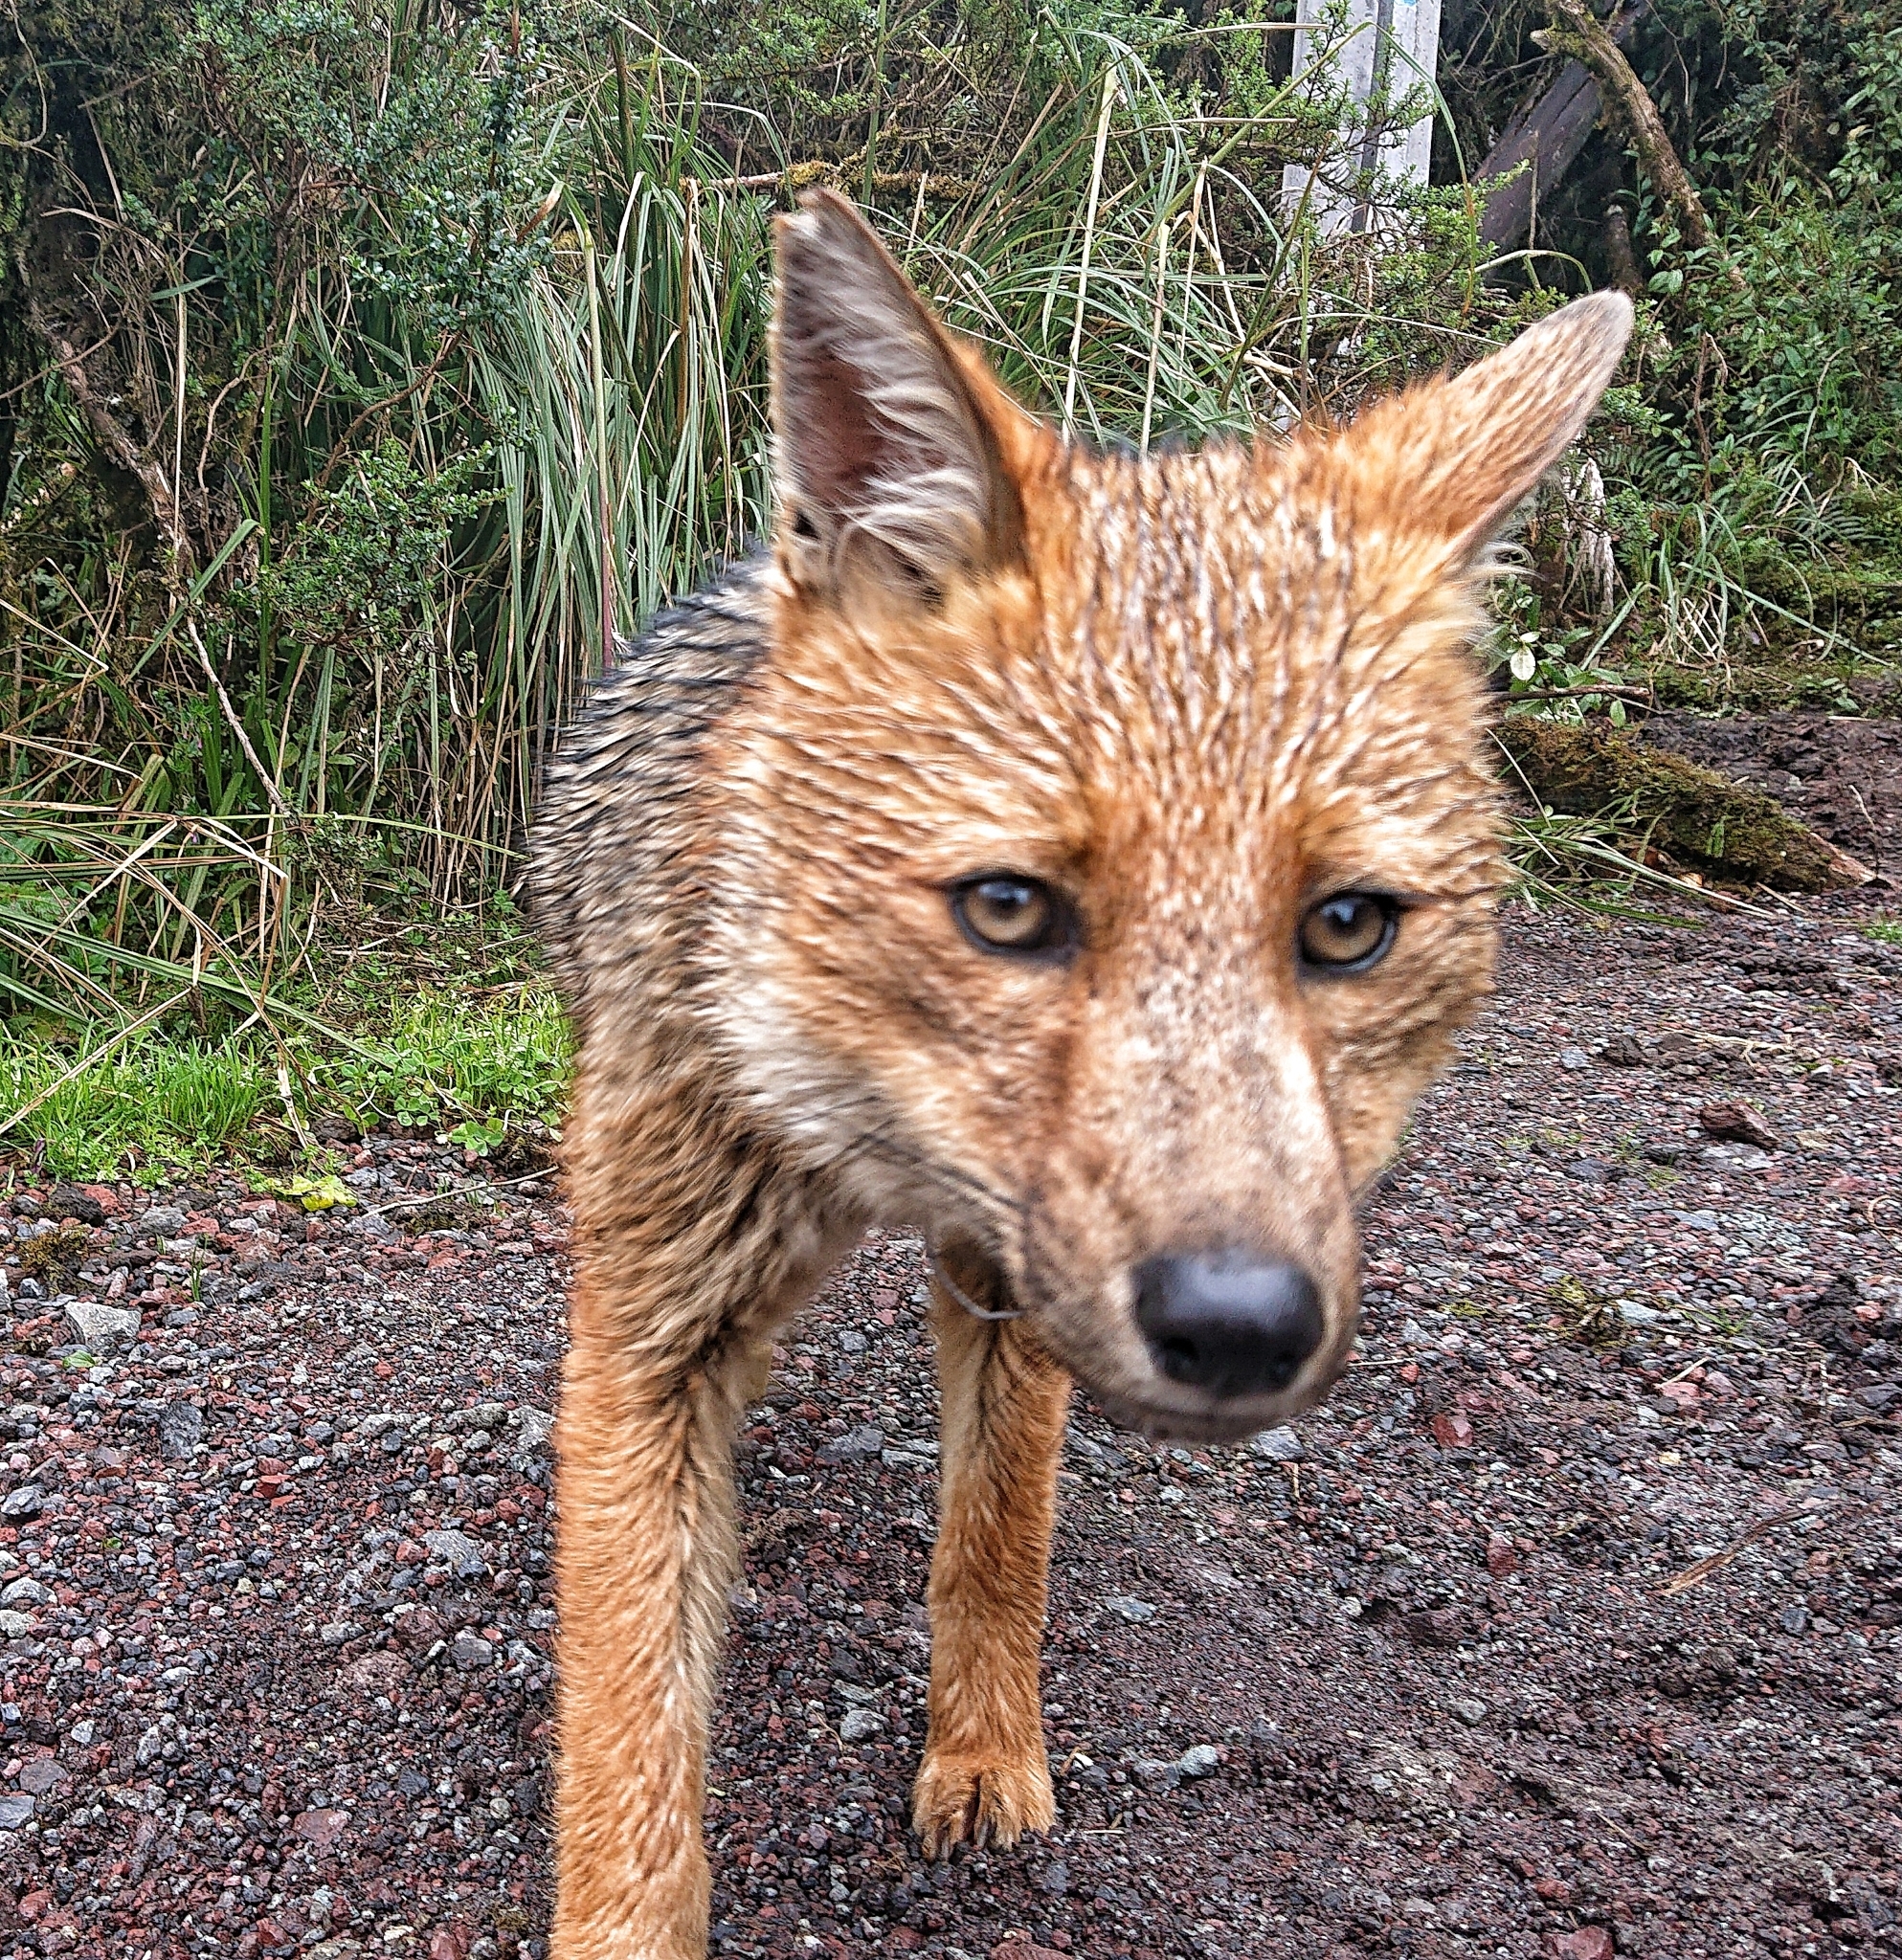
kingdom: Animalia
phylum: Chordata
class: Mammalia
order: Carnivora
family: Canidae
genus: Lycalopex
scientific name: Lycalopex culpaeus
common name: Culpeo
